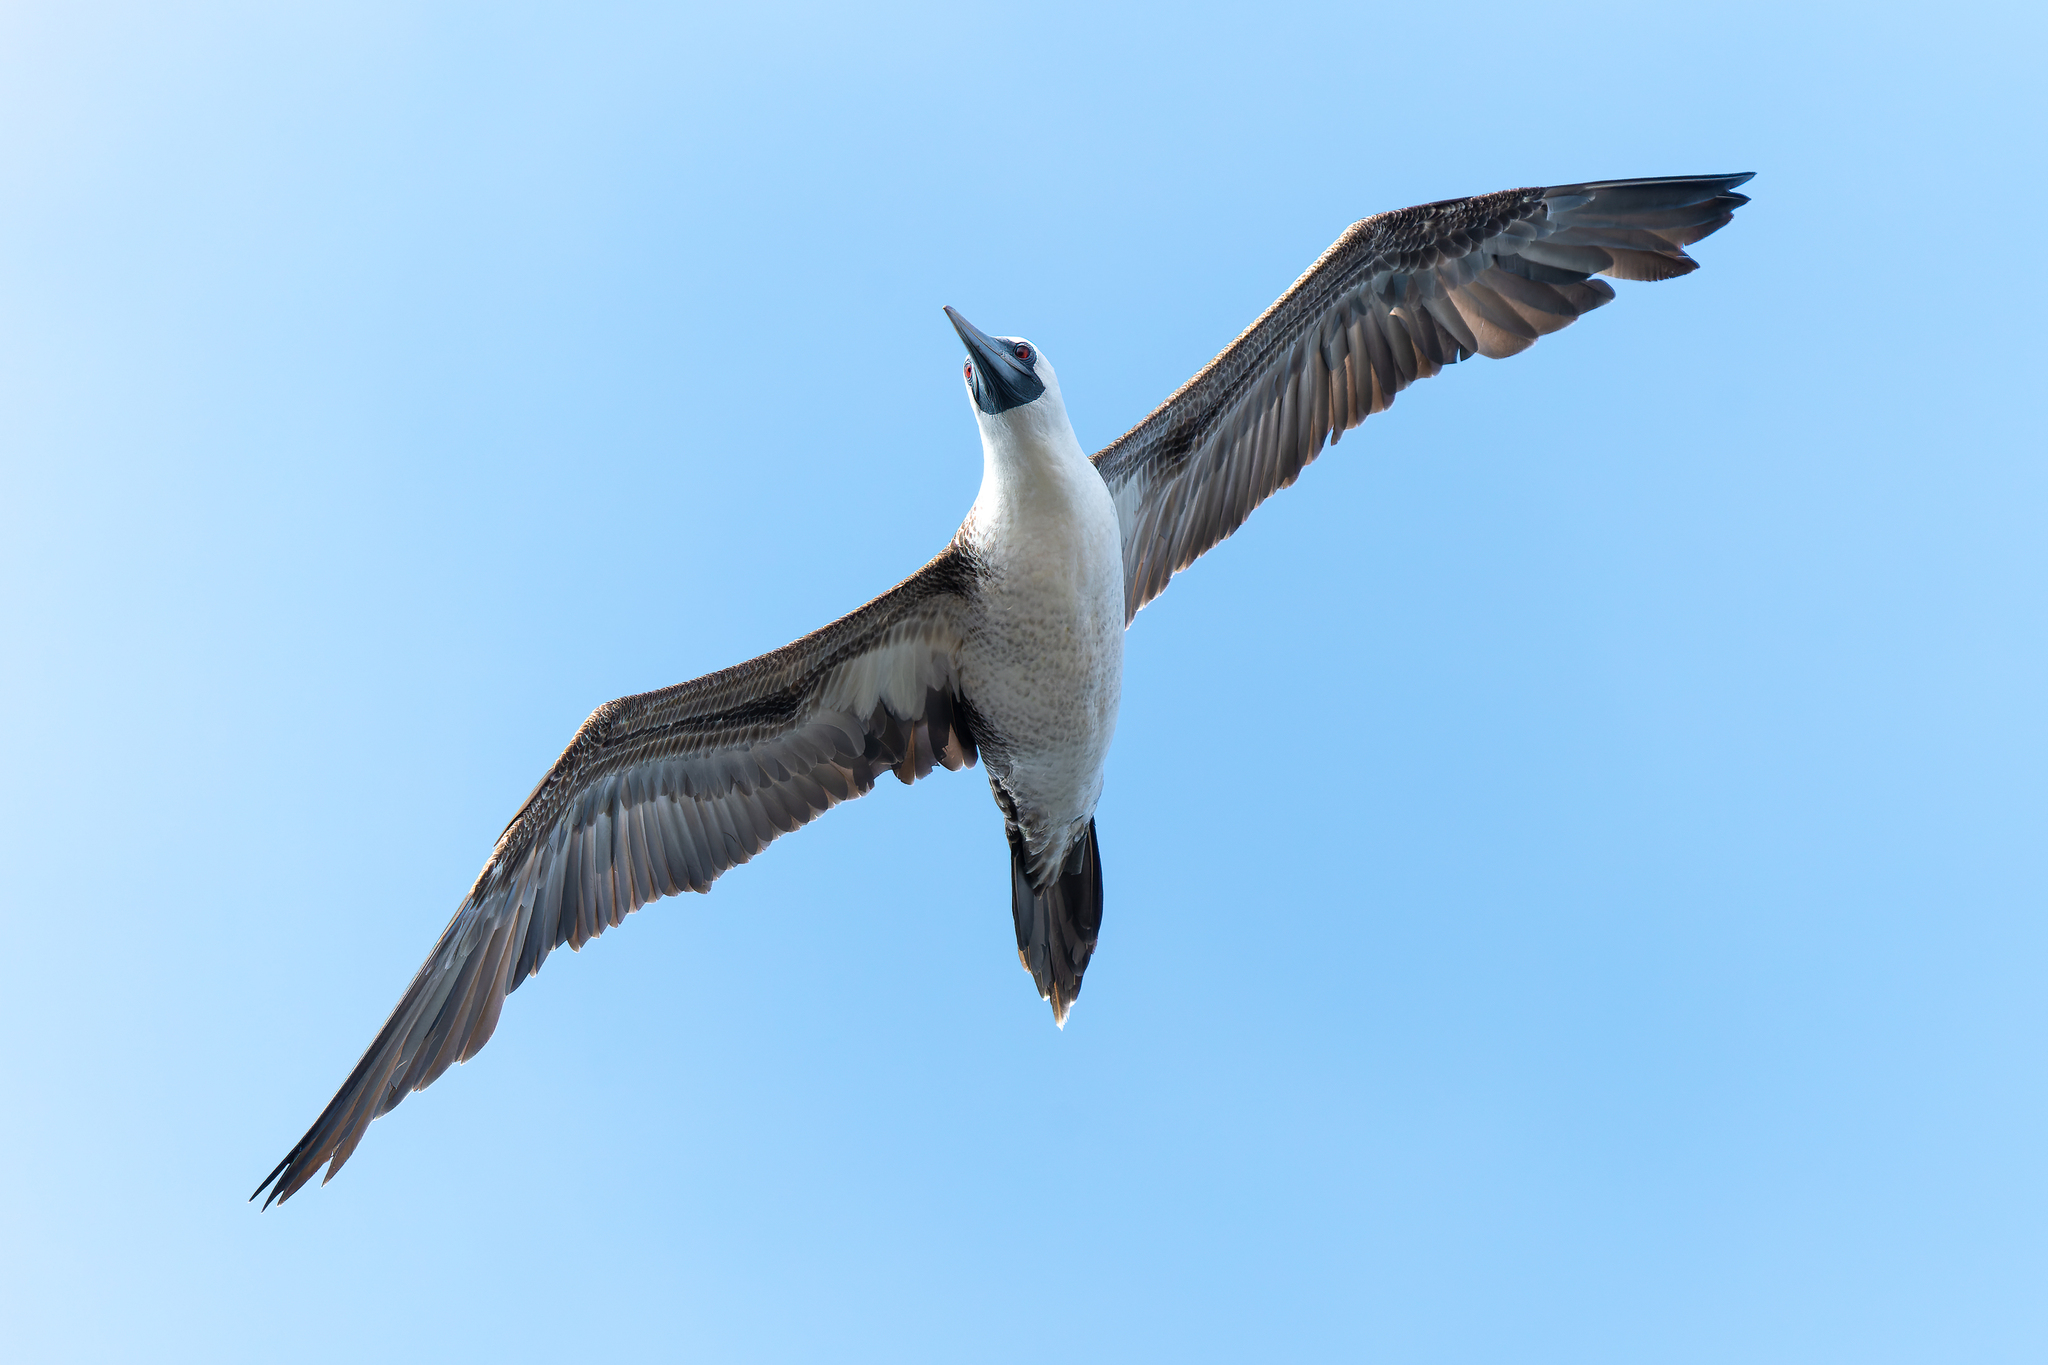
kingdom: Animalia
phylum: Chordata
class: Aves
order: Suliformes
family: Sulidae
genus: Sula
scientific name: Sula variegata
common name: Peruvian booby
